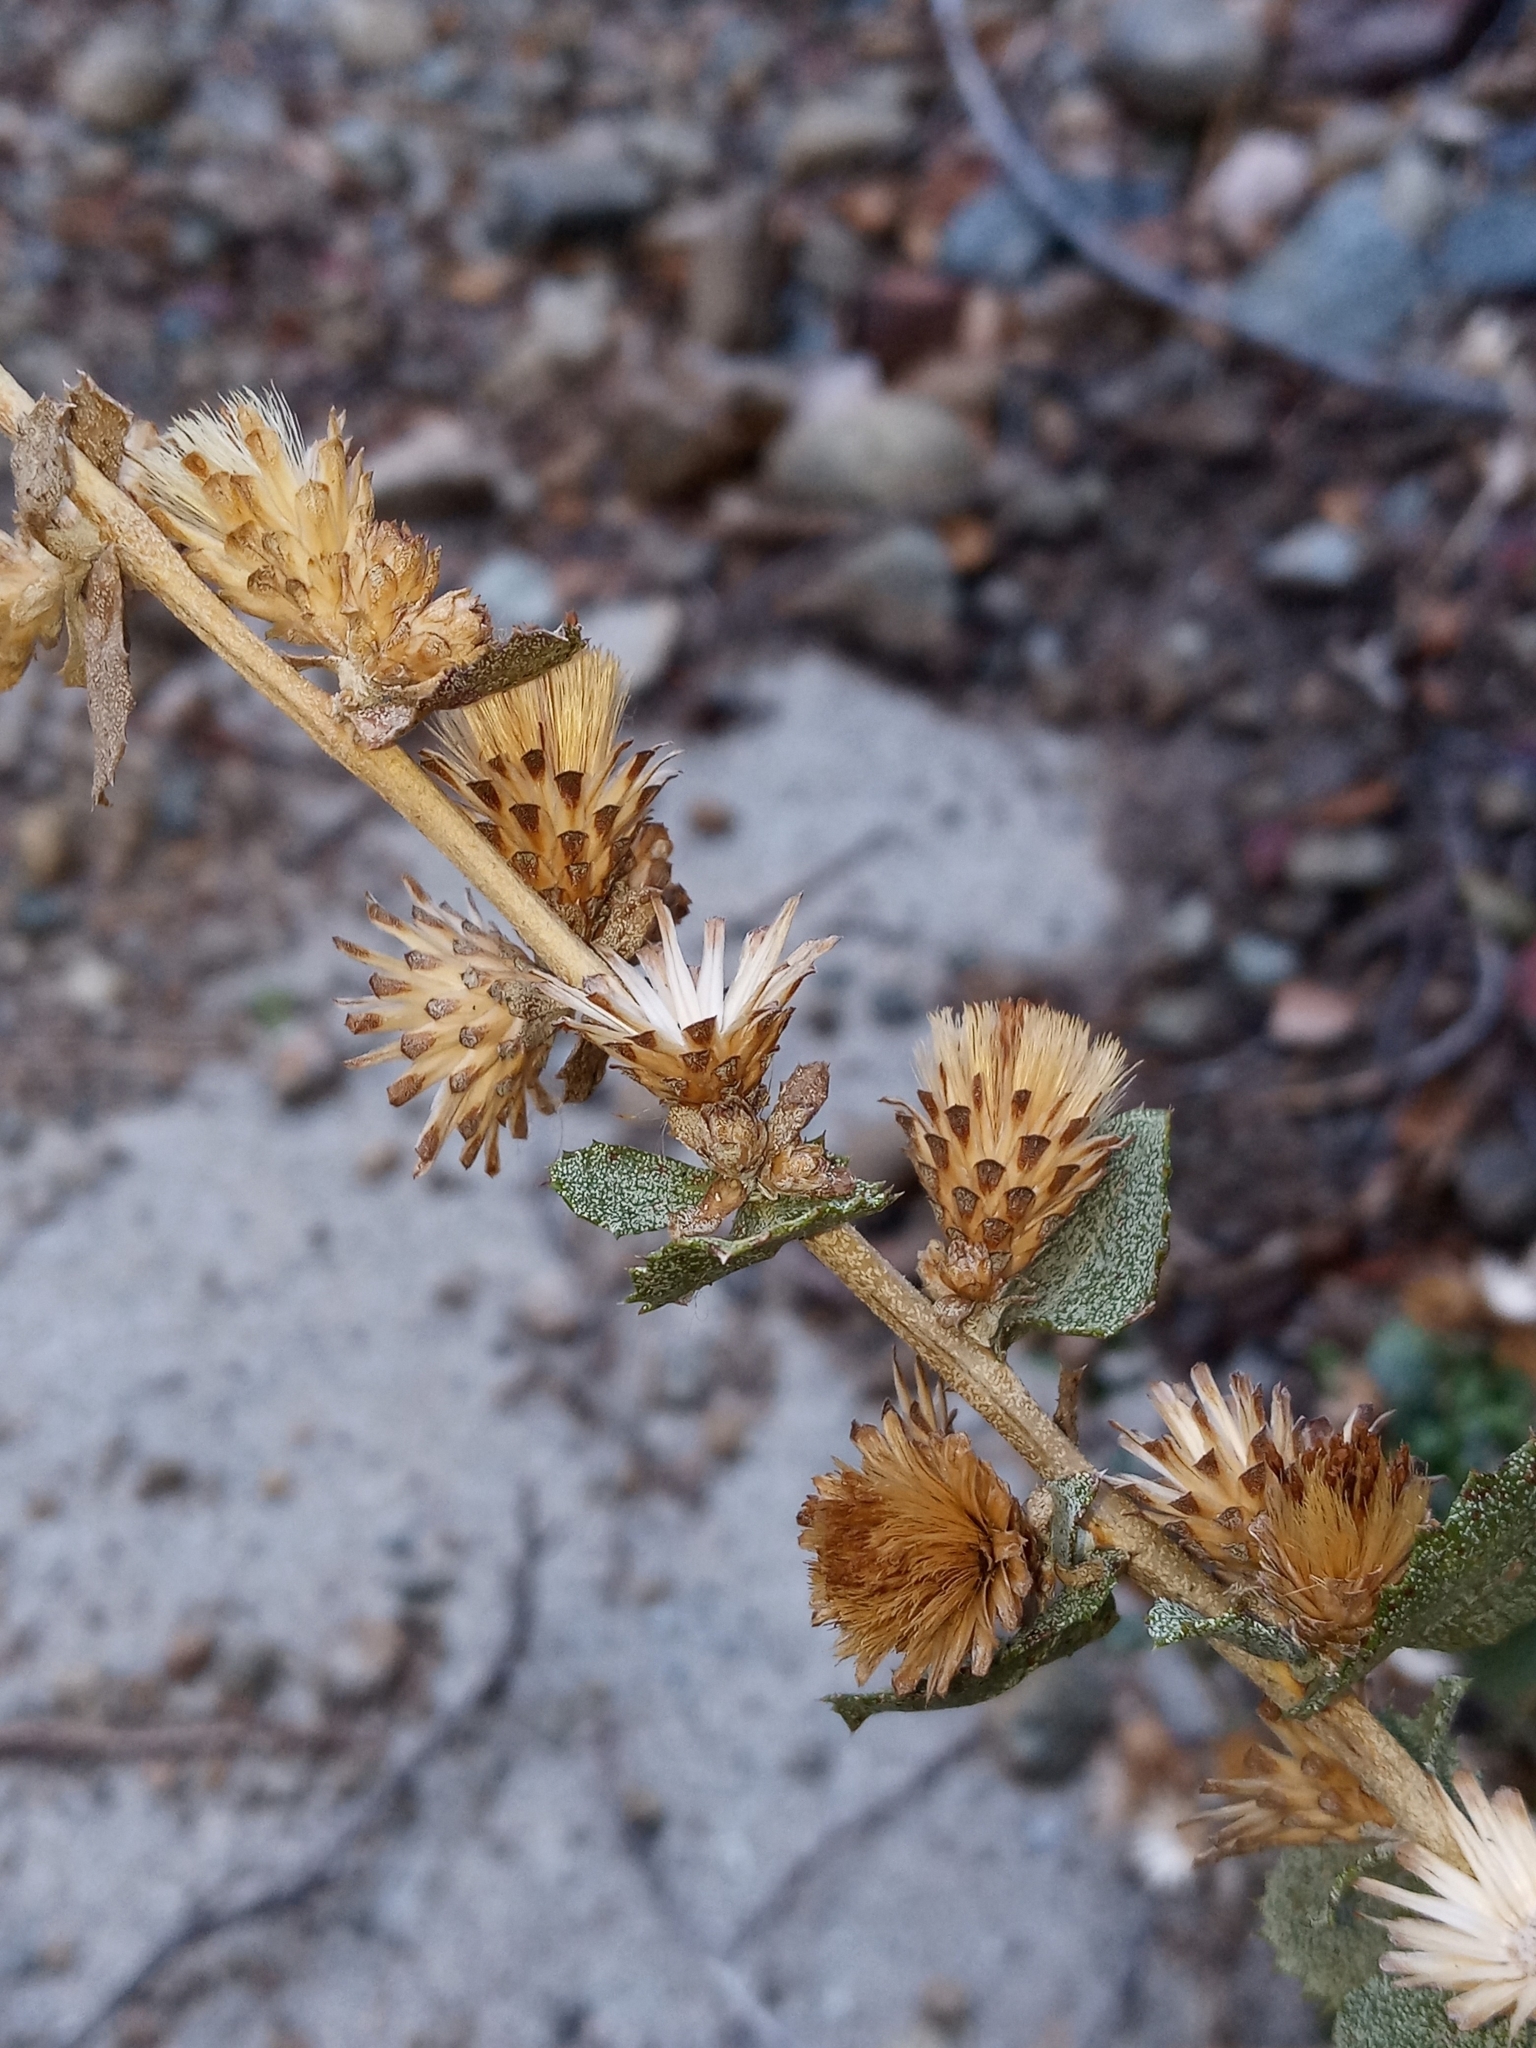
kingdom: Plantae
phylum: Tracheophyta
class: Magnoliopsida
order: Asterales
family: Asteraceae
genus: Hazardia
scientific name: Hazardia squarrosa
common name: Saw-tooth goldenbush
